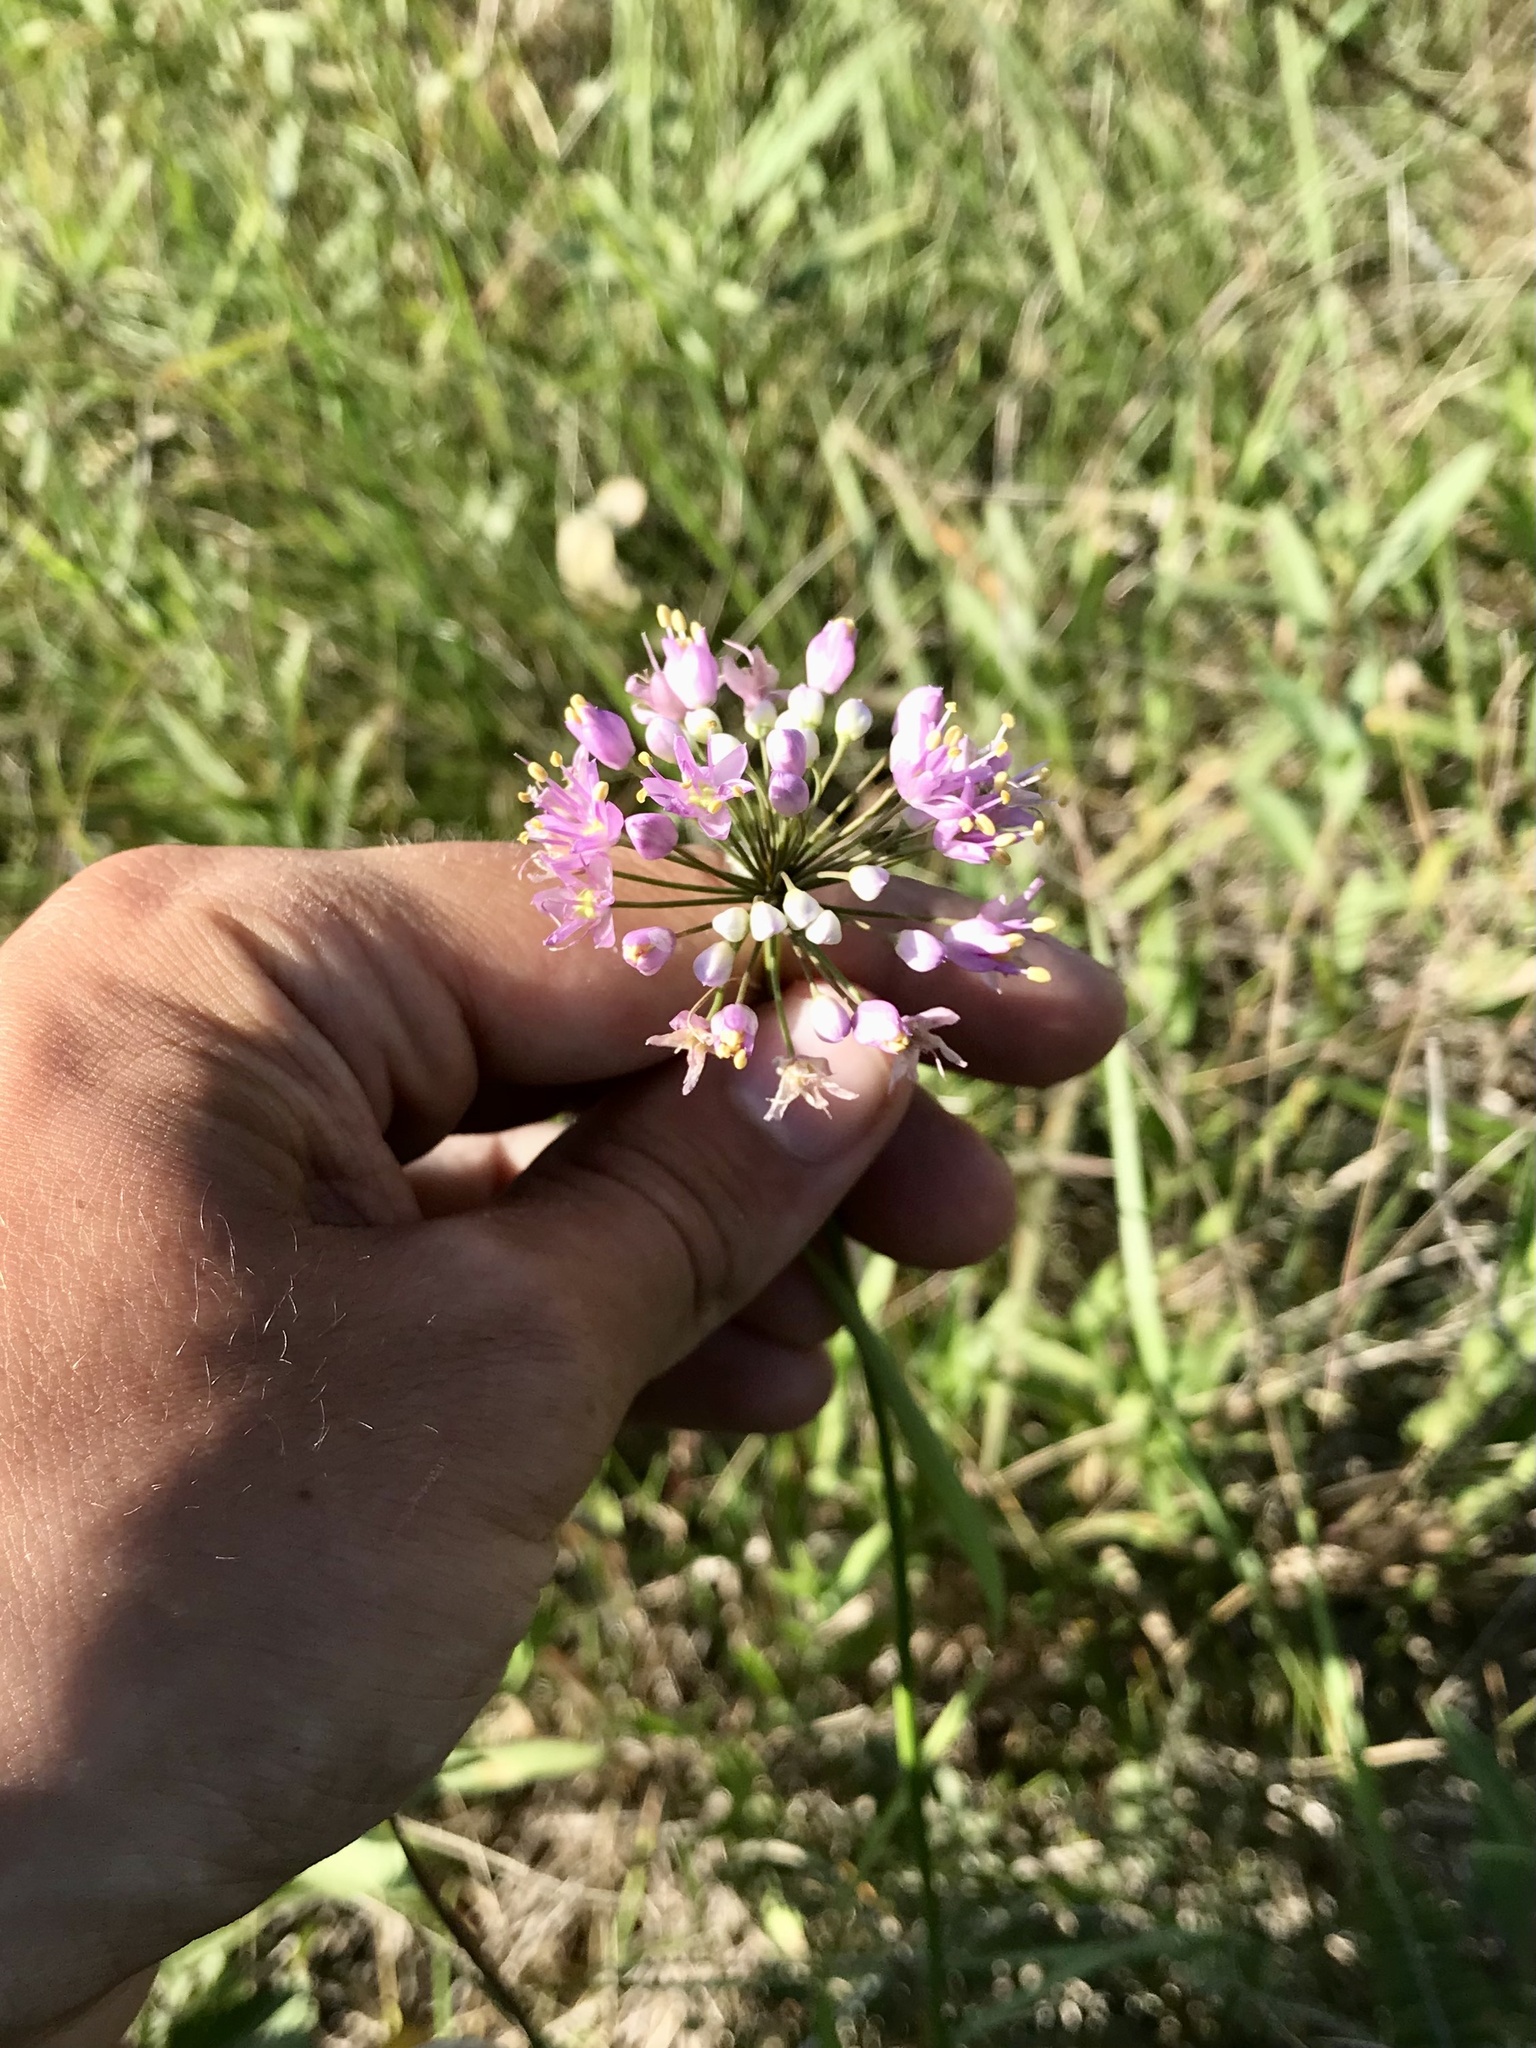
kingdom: Plantae
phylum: Tracheophyta
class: Liliopsida
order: Asparagales
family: Amaryllidaceae
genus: Allium
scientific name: Allium stellatum
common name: Autumn onion
